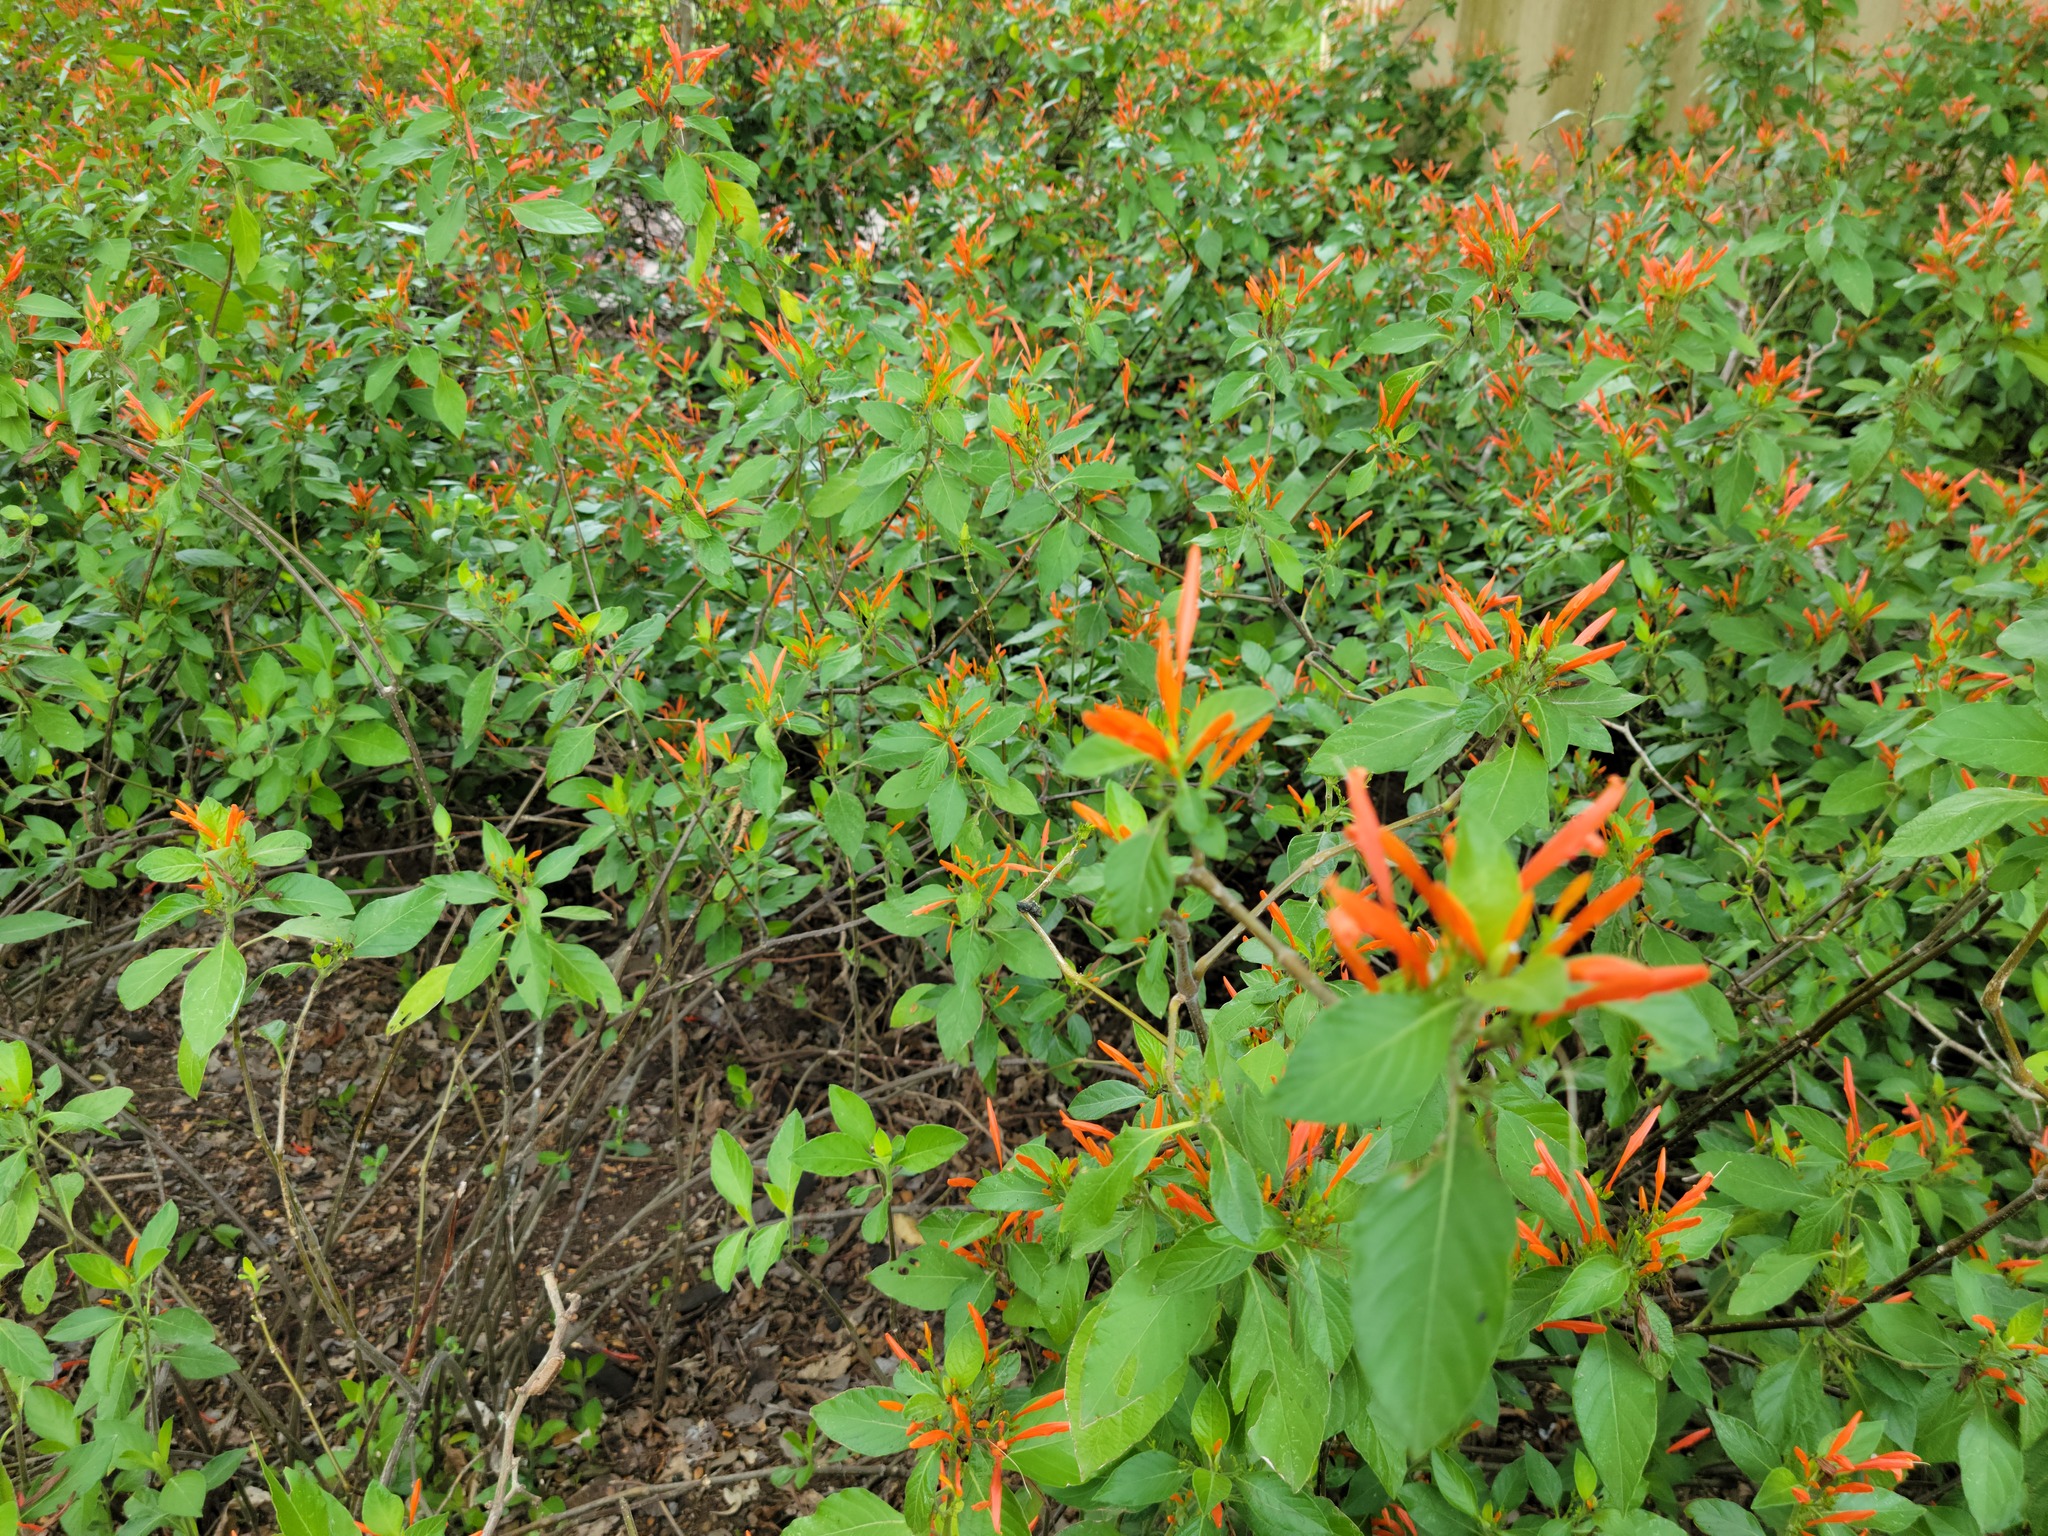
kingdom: Plantae
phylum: Tracheophyta
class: Magnoliopsida
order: Lamiales
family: Acanthaceae
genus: Justicia
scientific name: Justicia spicigera
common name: Mohintli
